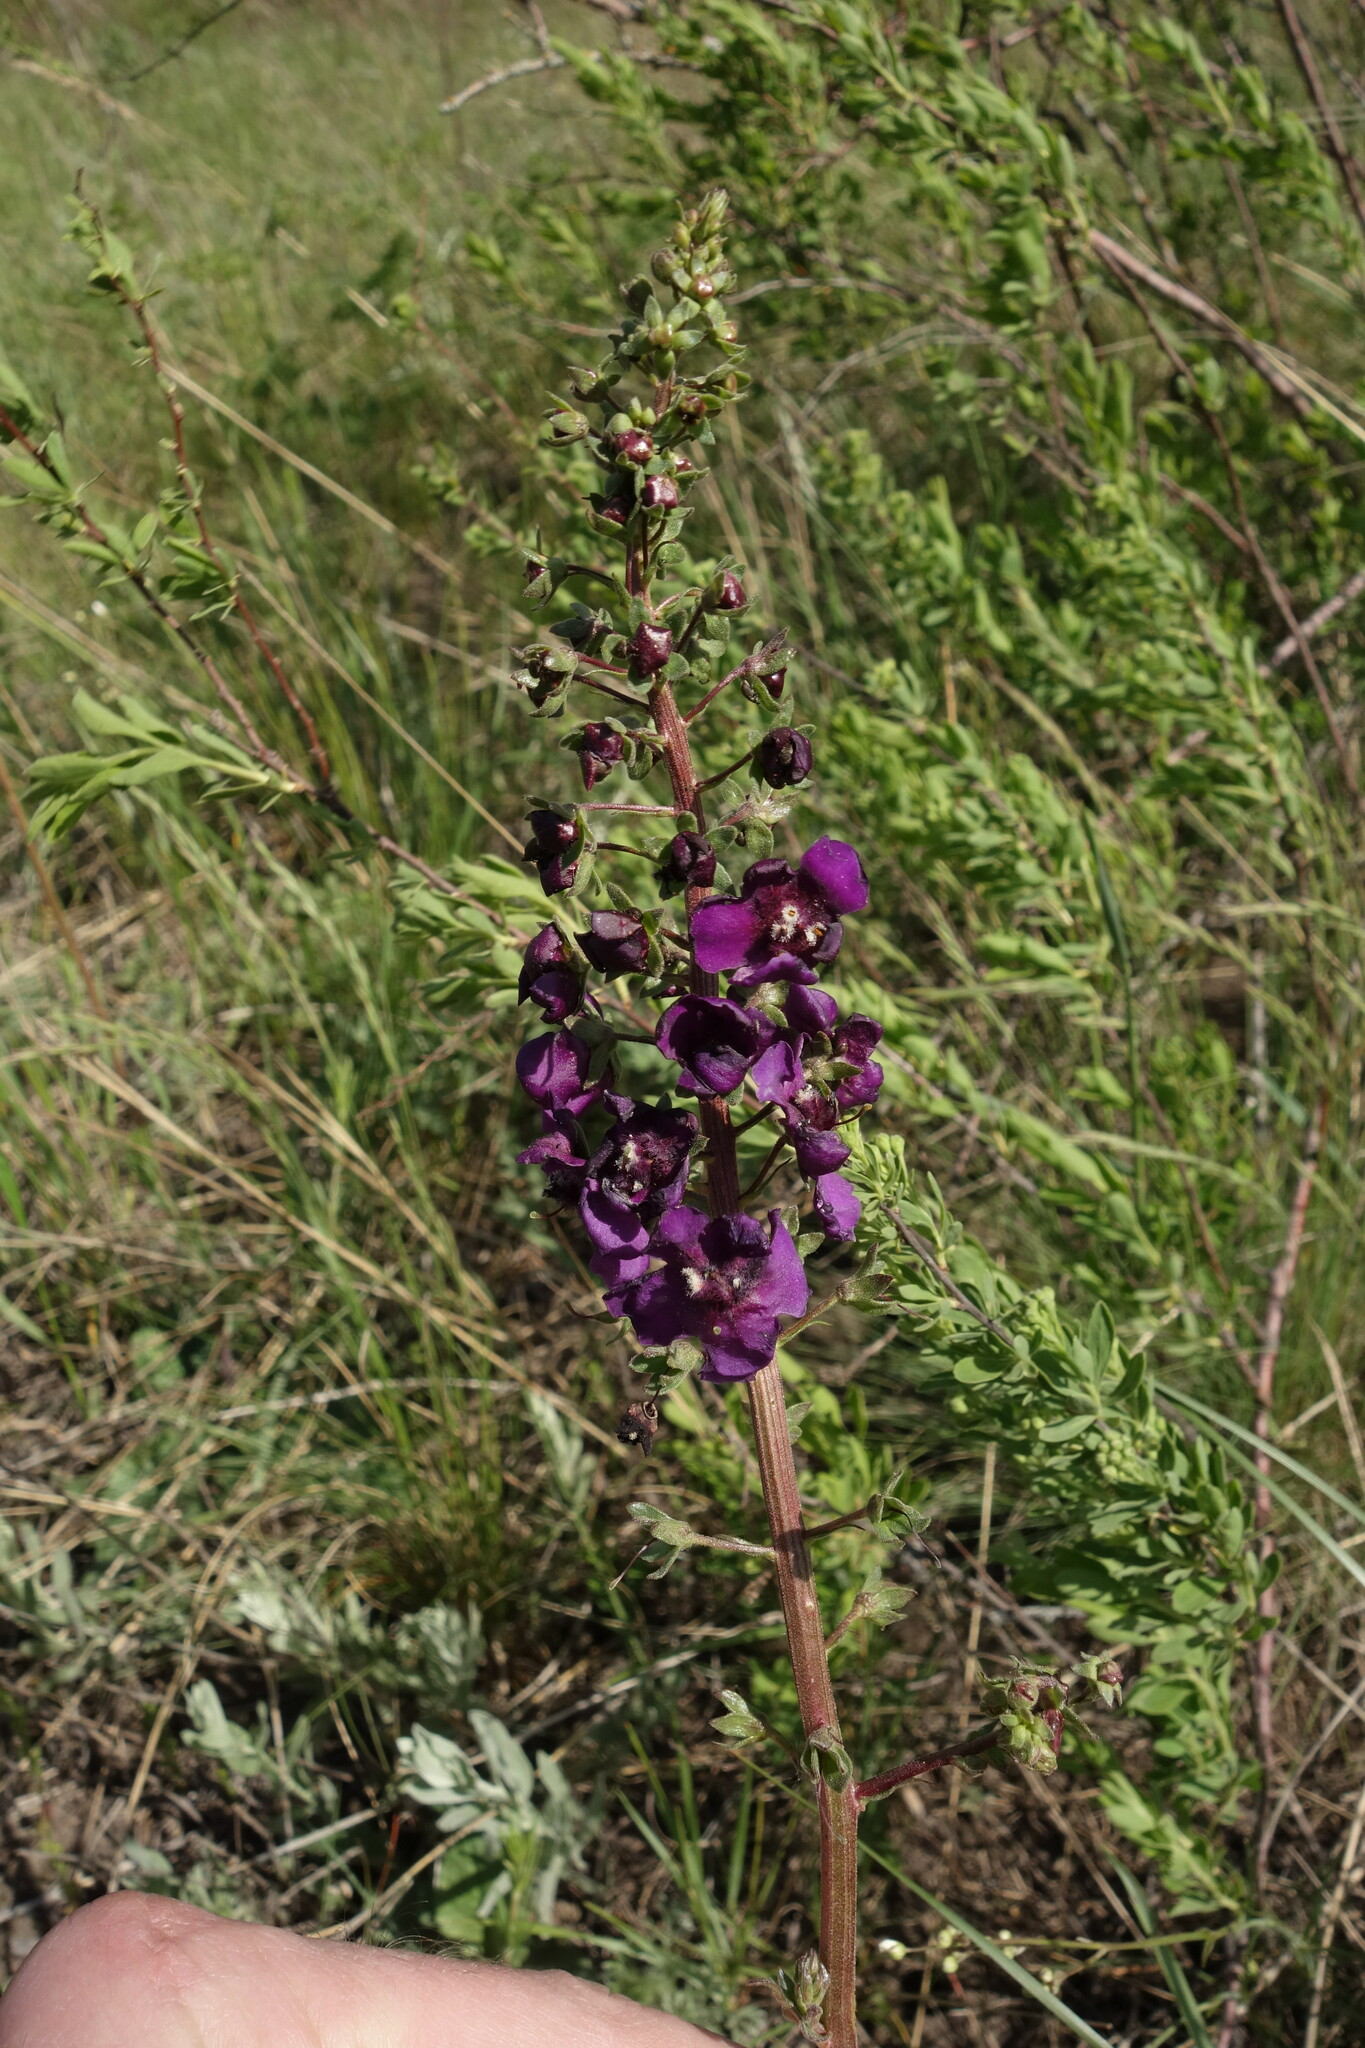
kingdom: Plantae
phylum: Tracheophyta
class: Magnoliopsida
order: Lamiales
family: Scrophulariaceae
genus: Verbascum
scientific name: Verbascum phoeniceum
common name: Purple mullein
